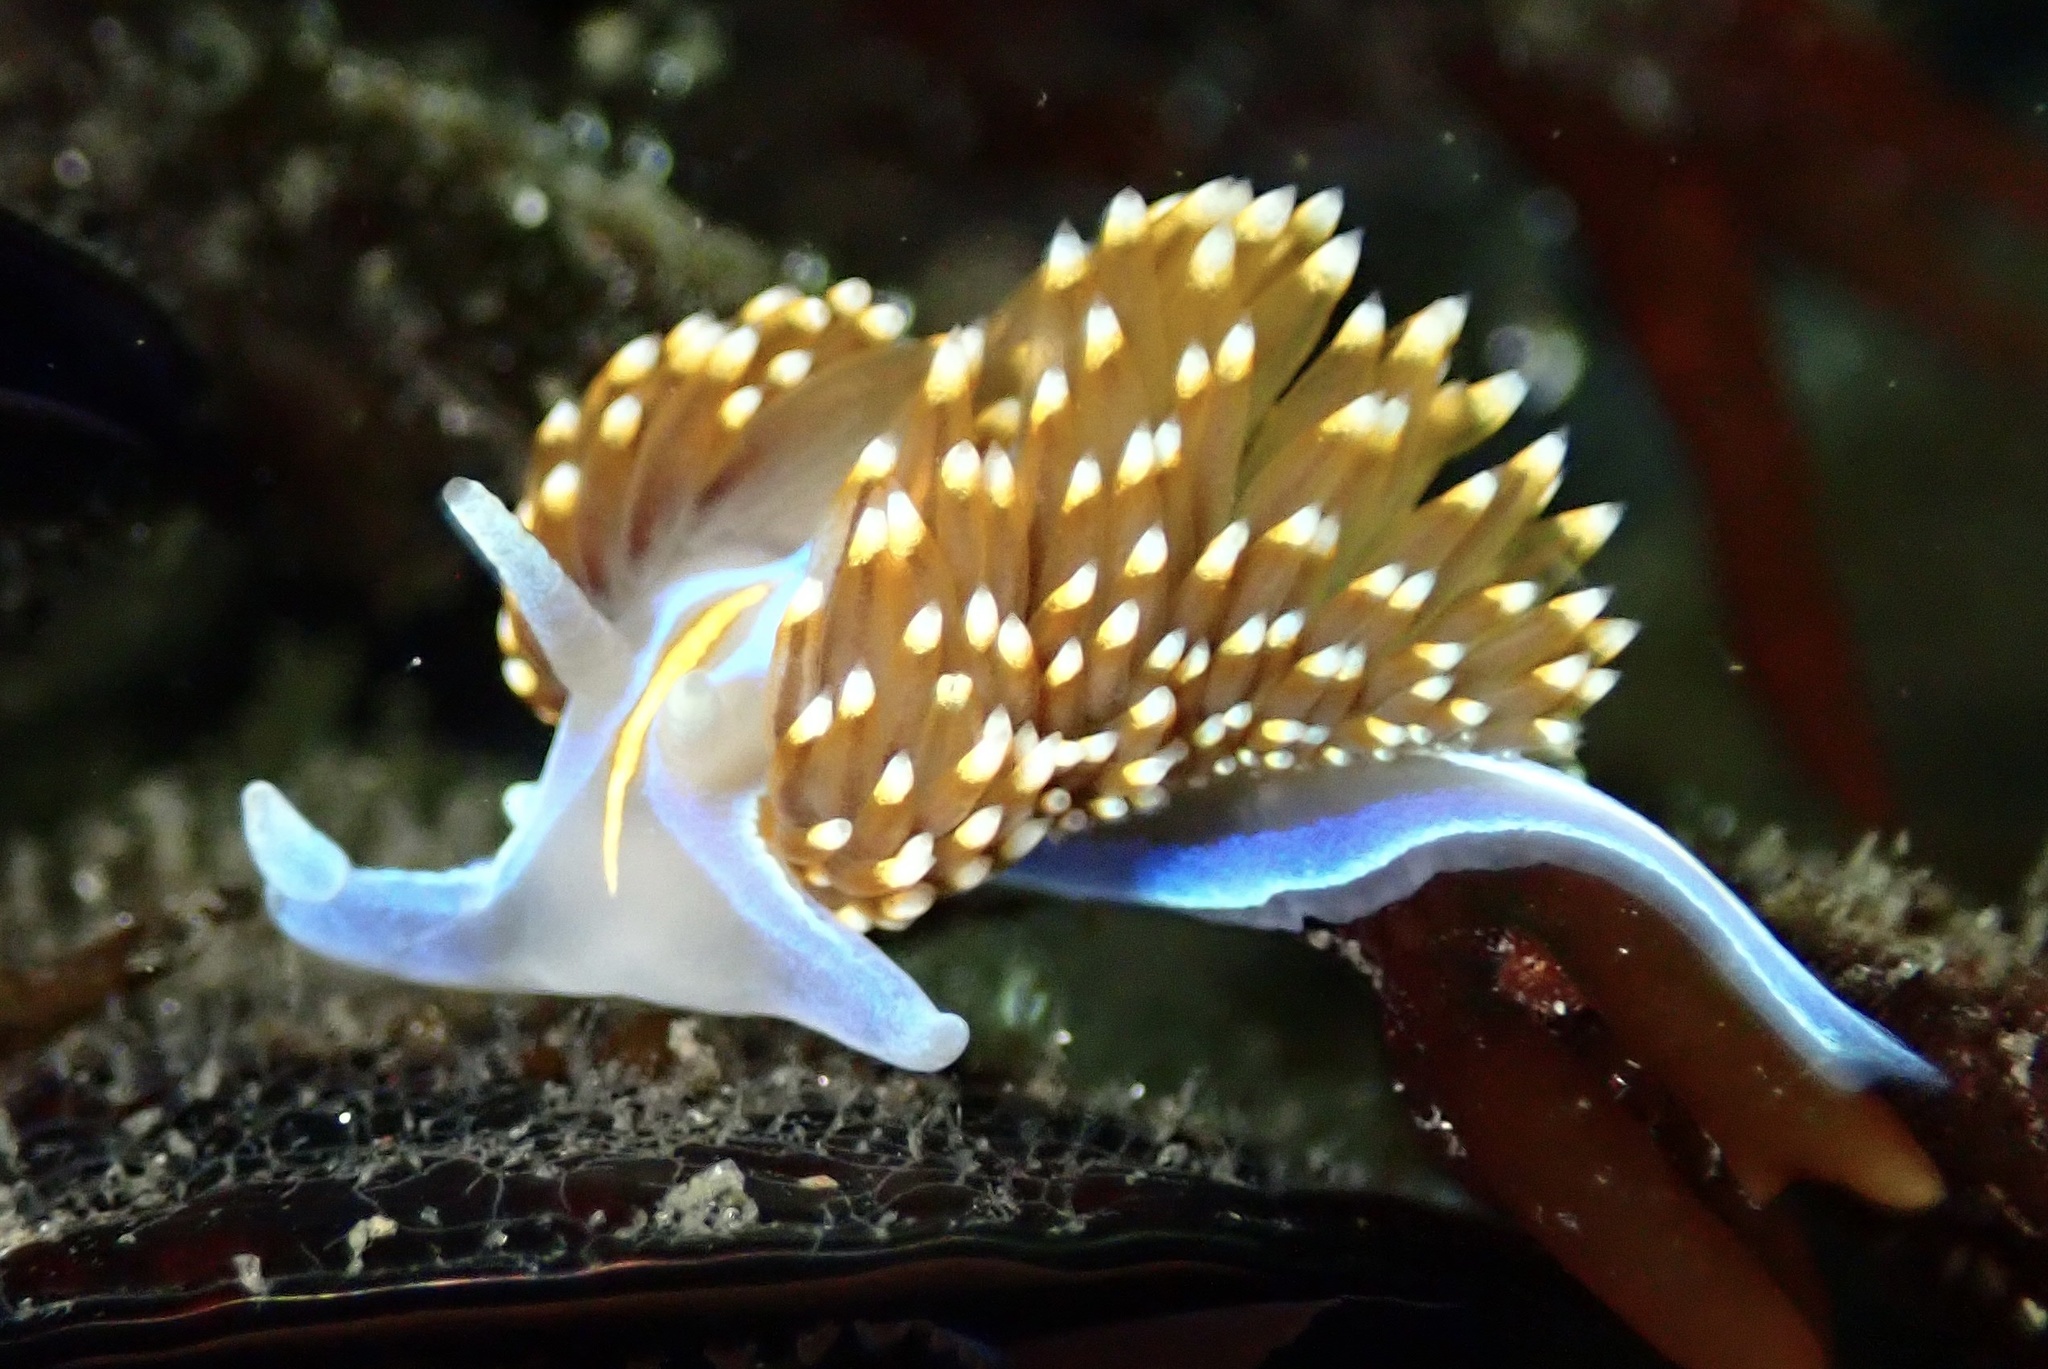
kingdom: Animalia
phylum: Mollusca
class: Gastropoda
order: Nudibranchia
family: Myrrhinidae
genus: Hermissenda
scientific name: Hermissenda opalescens
